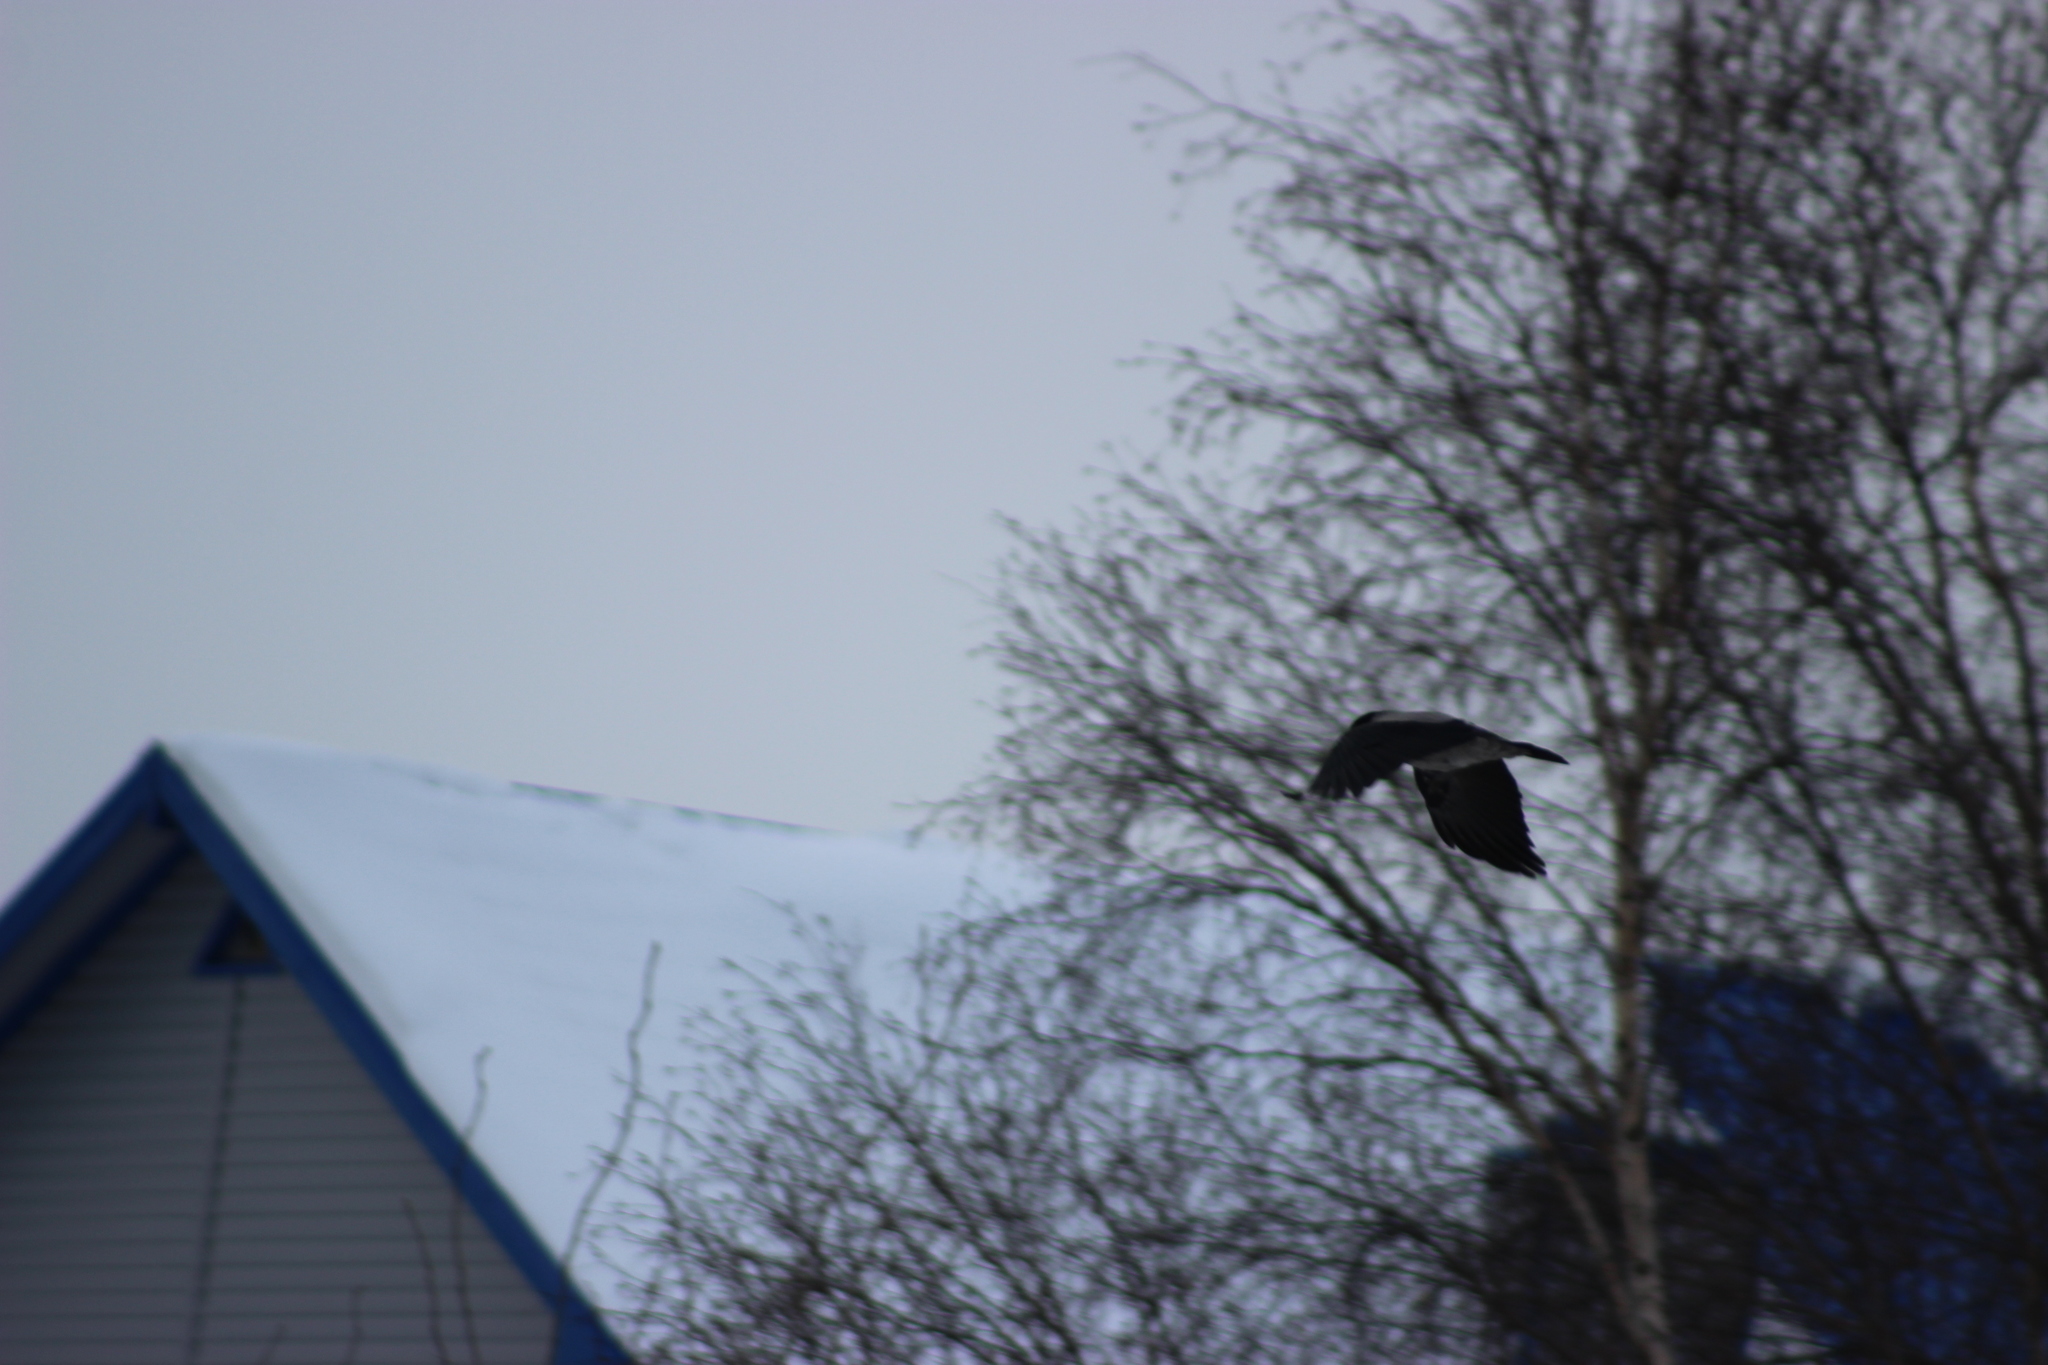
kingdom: Animalia
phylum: Chordata
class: Aves
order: Passeriformes
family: Corvidae
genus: Corvus
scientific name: Corvus cornix
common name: Hooded crow
